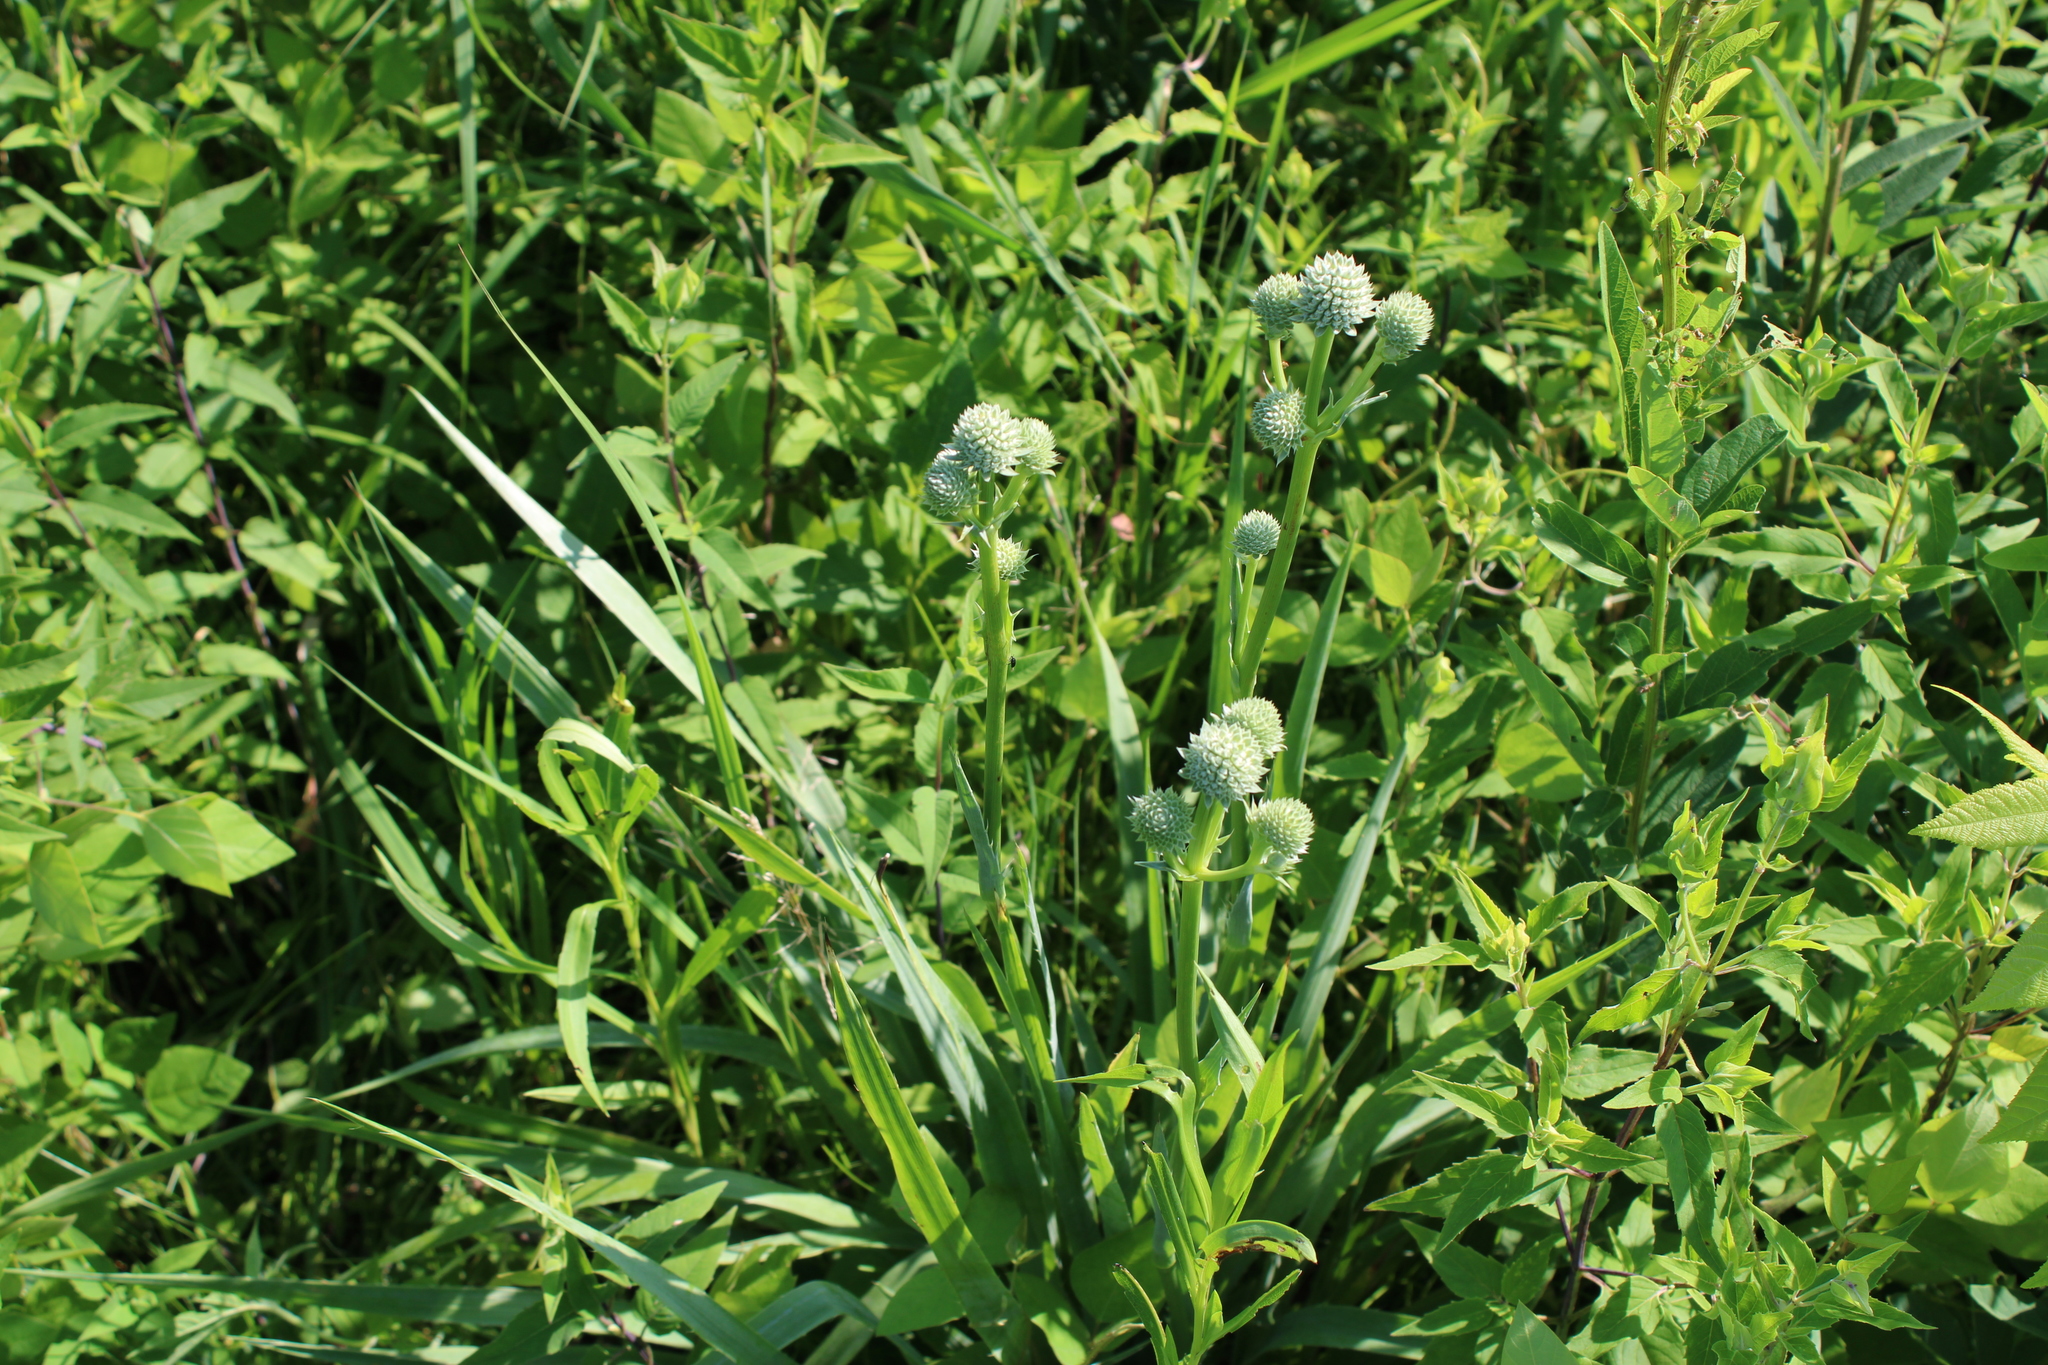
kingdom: Plantae
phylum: Tracheophyta
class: Magnoliopsida
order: Apiales
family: Apiaceae
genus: Eryngium
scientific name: Eryngium yuccifolium
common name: Button eryngo
